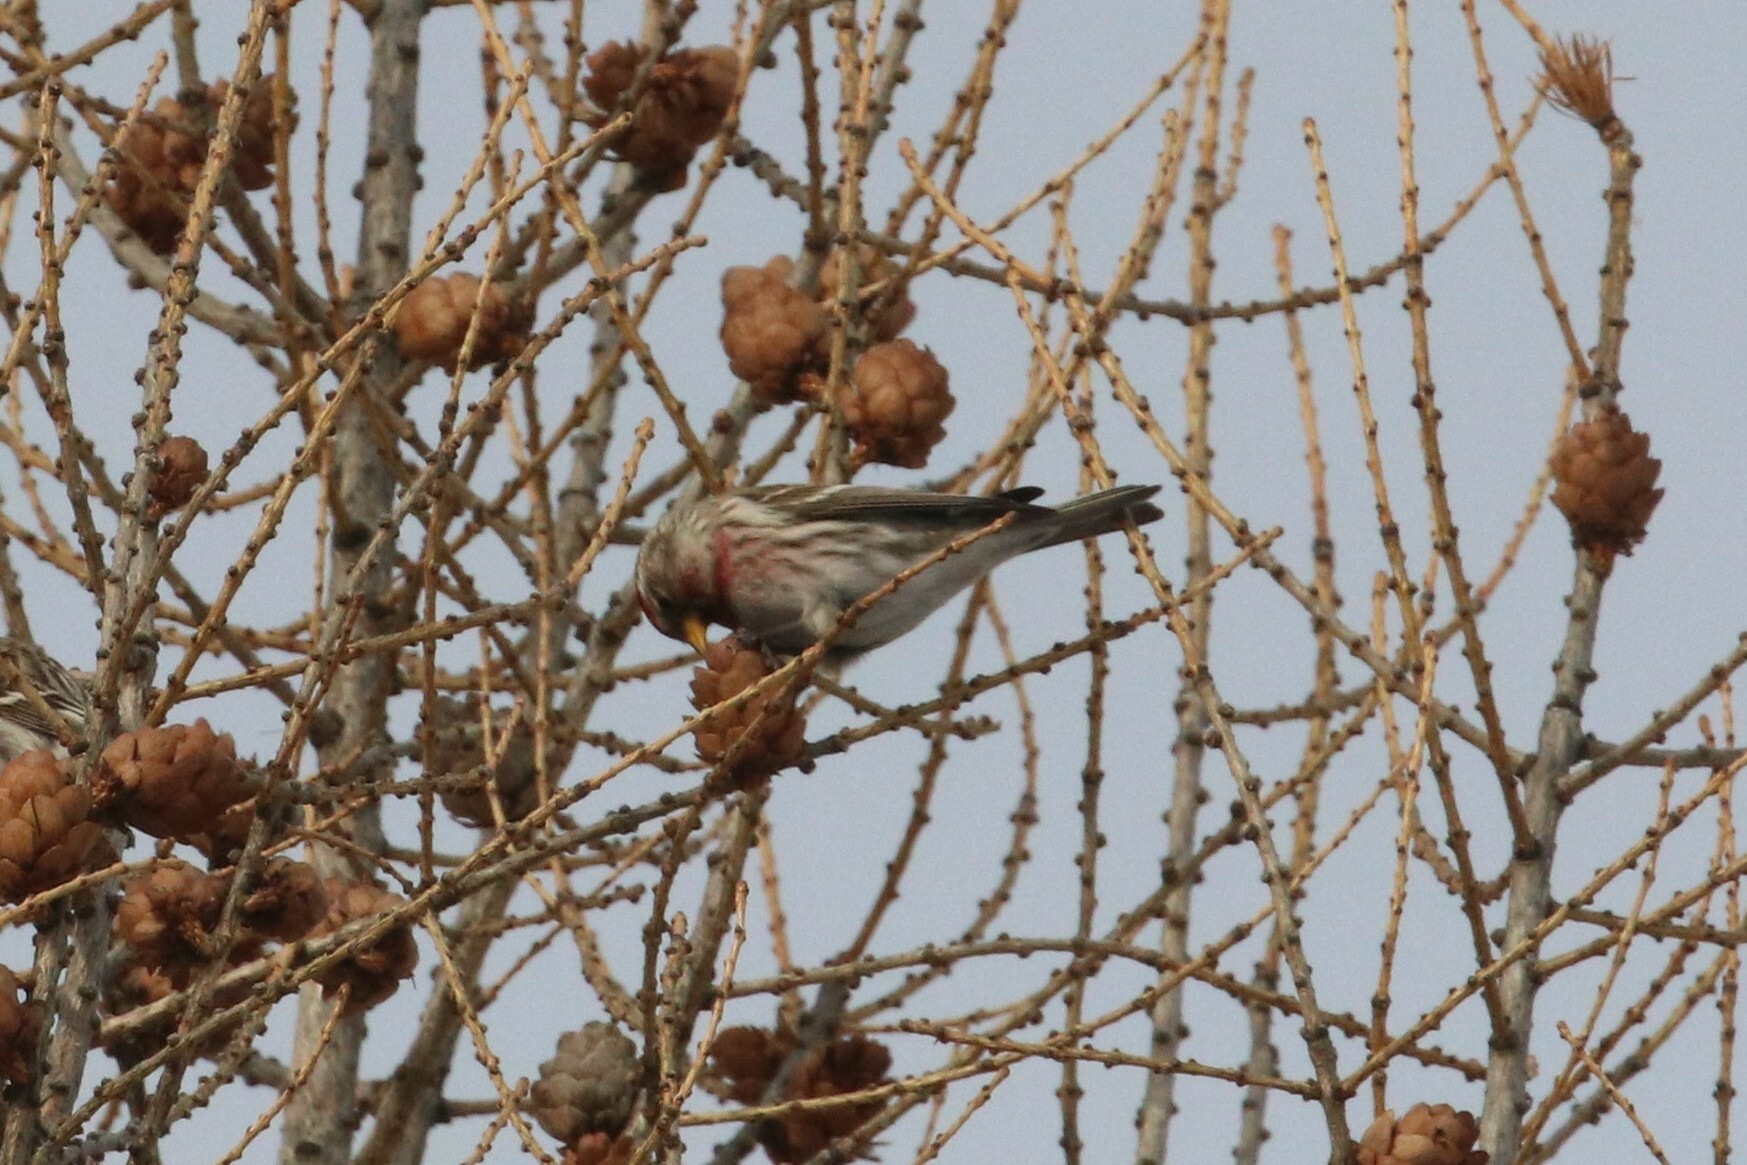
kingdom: Animalia
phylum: Chordata
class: Aves
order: Passeriformes
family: Fringillidae
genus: Acanthis
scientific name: Acanthis flammea
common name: Common redpoll
